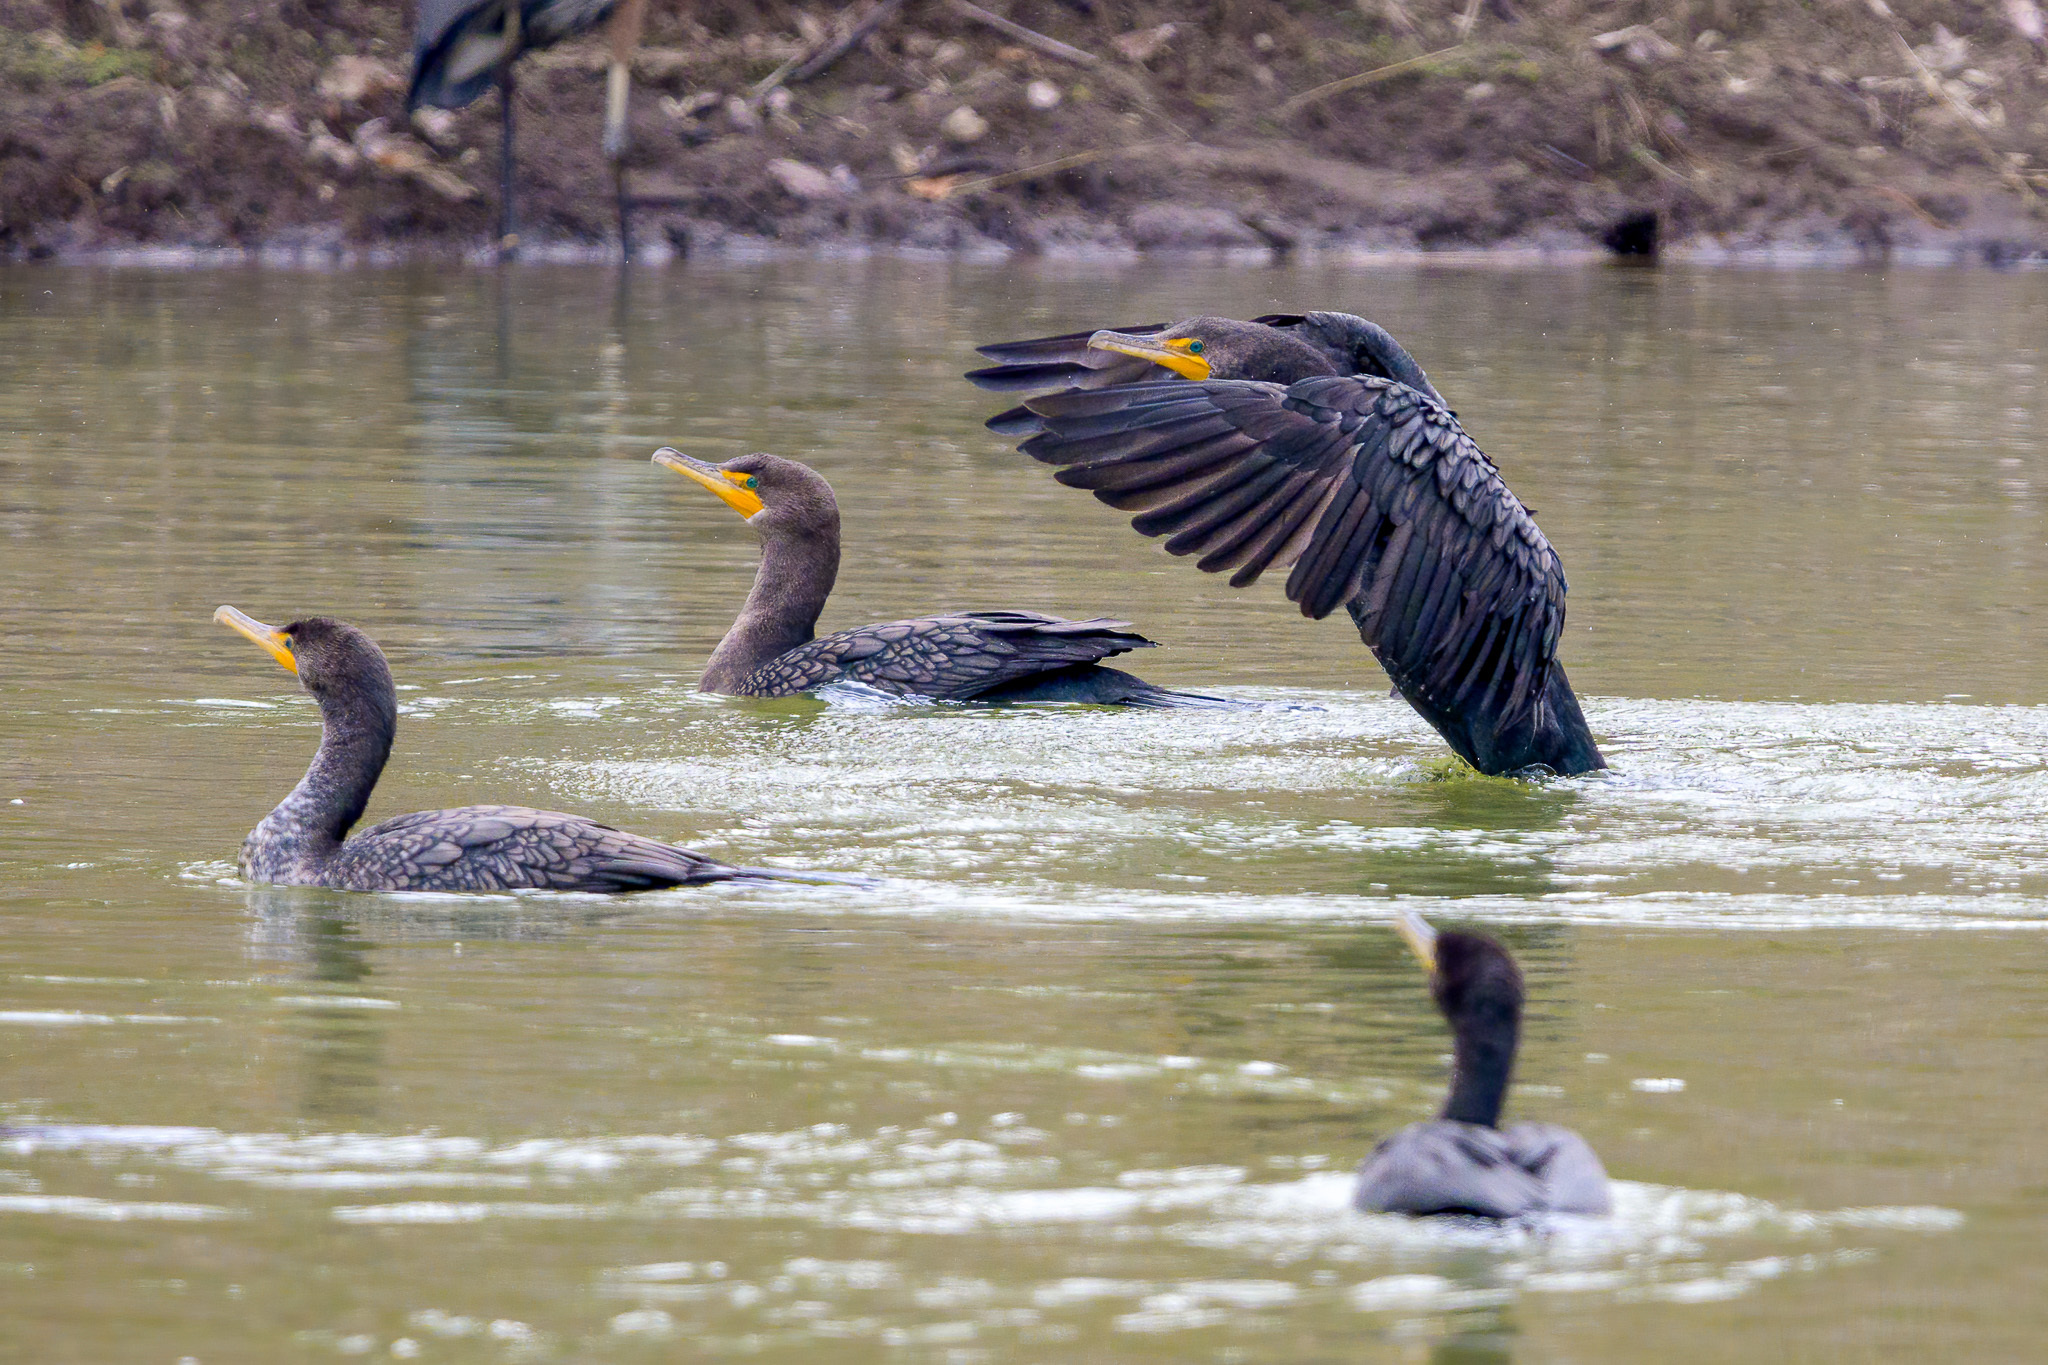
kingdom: Animalia
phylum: Chordata
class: Aves
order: Suliformes
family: Phalacrocoracidae
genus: Phalacrocorax
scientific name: Phalacrocorax auritus
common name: Double-crested cormorant
